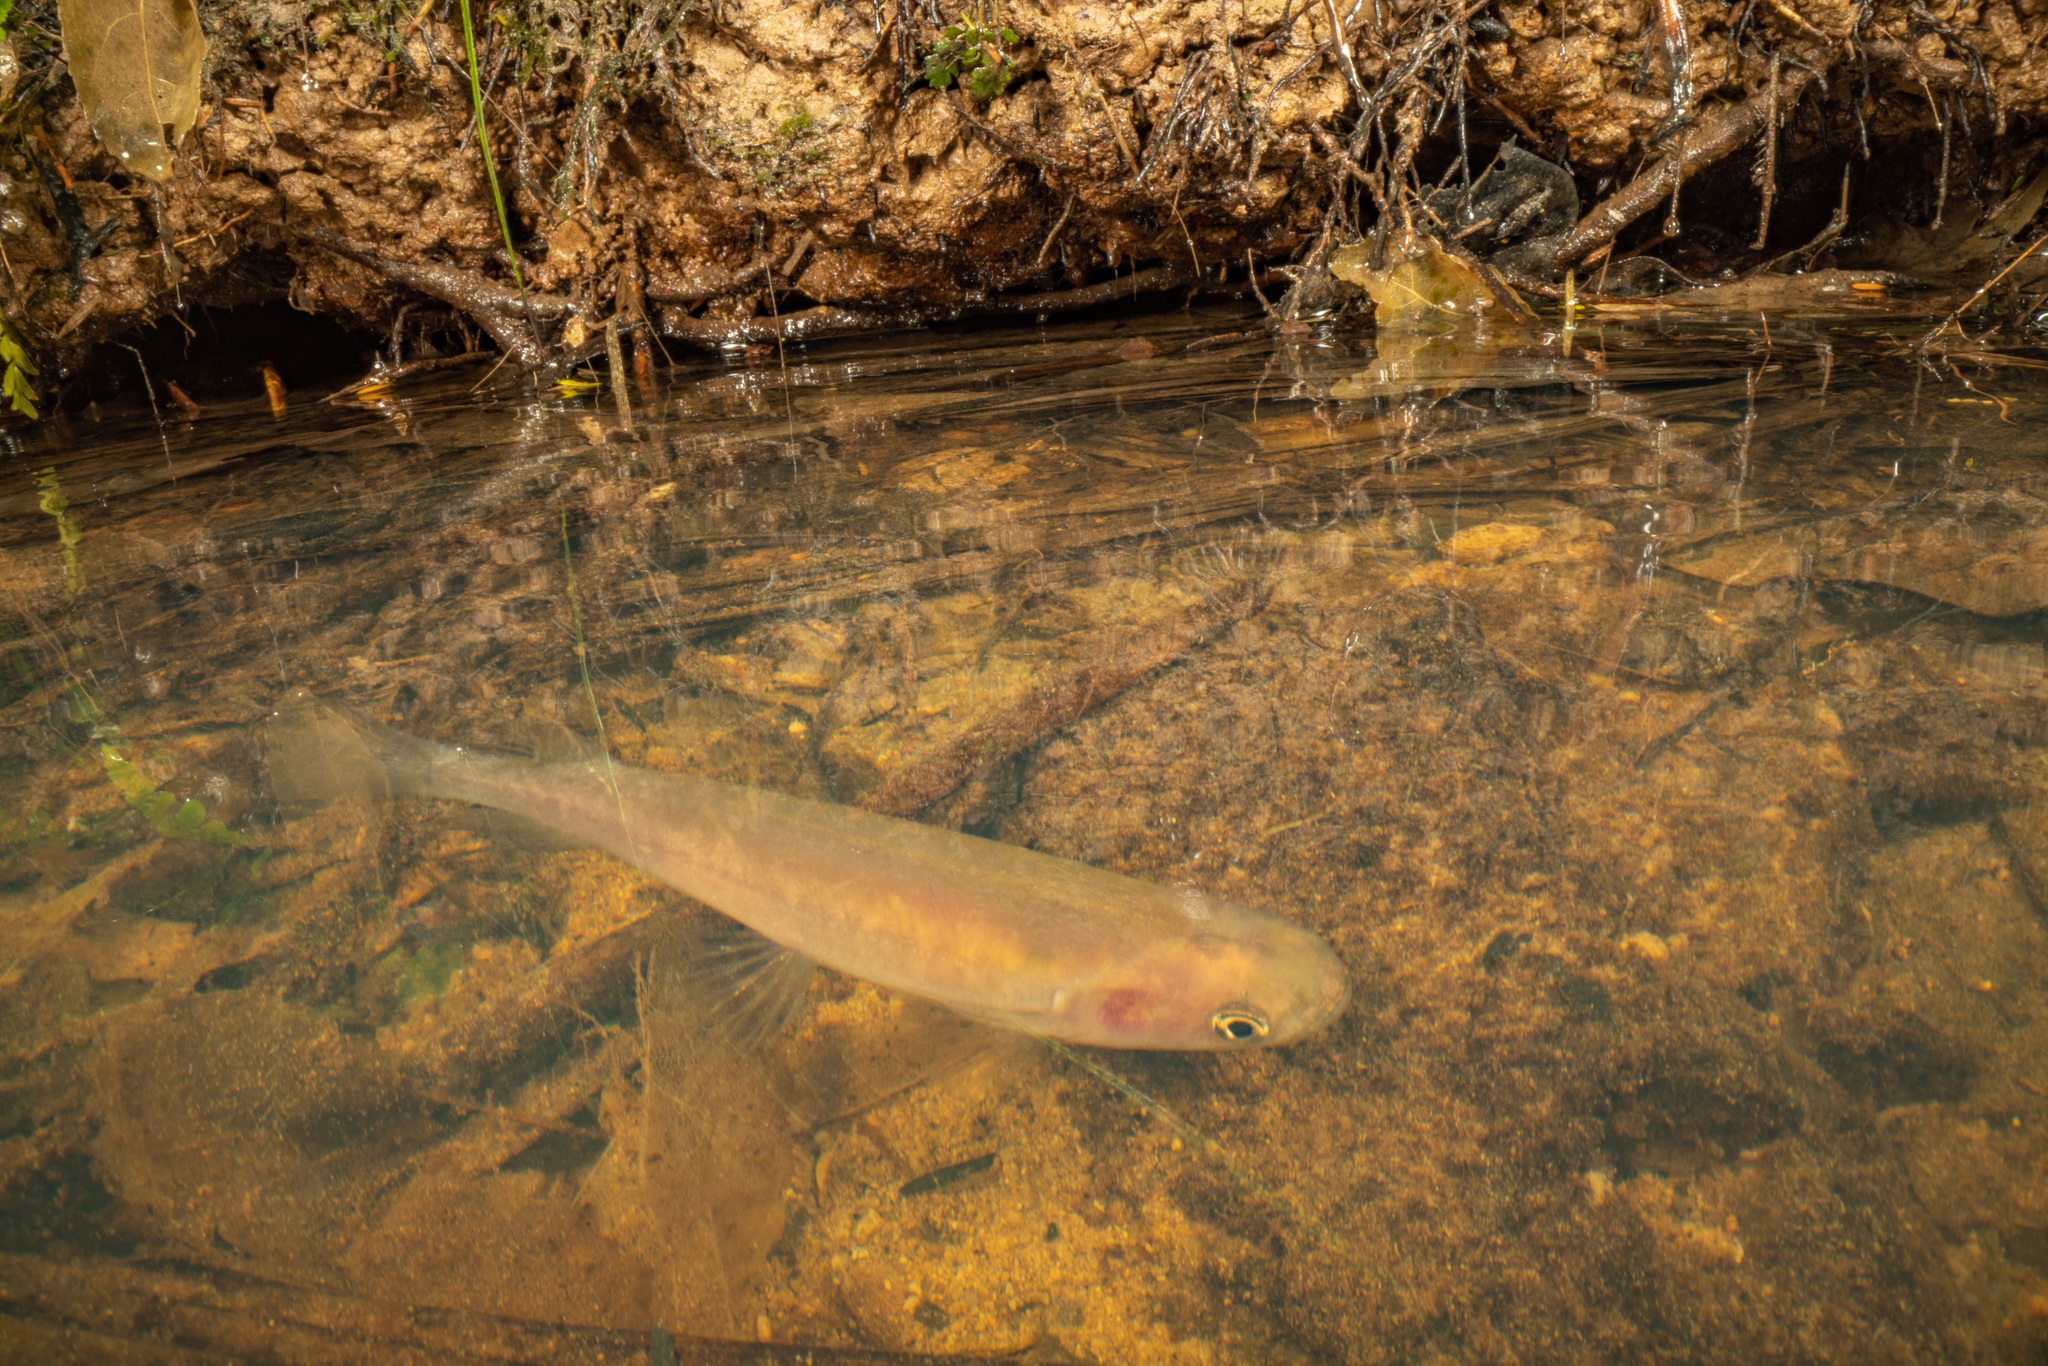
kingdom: Animalia
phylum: Chordata
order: Osmeriformes
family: Galaxiidae
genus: Galaxias
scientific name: Galaxias fasciatus
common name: Banded kokopu
